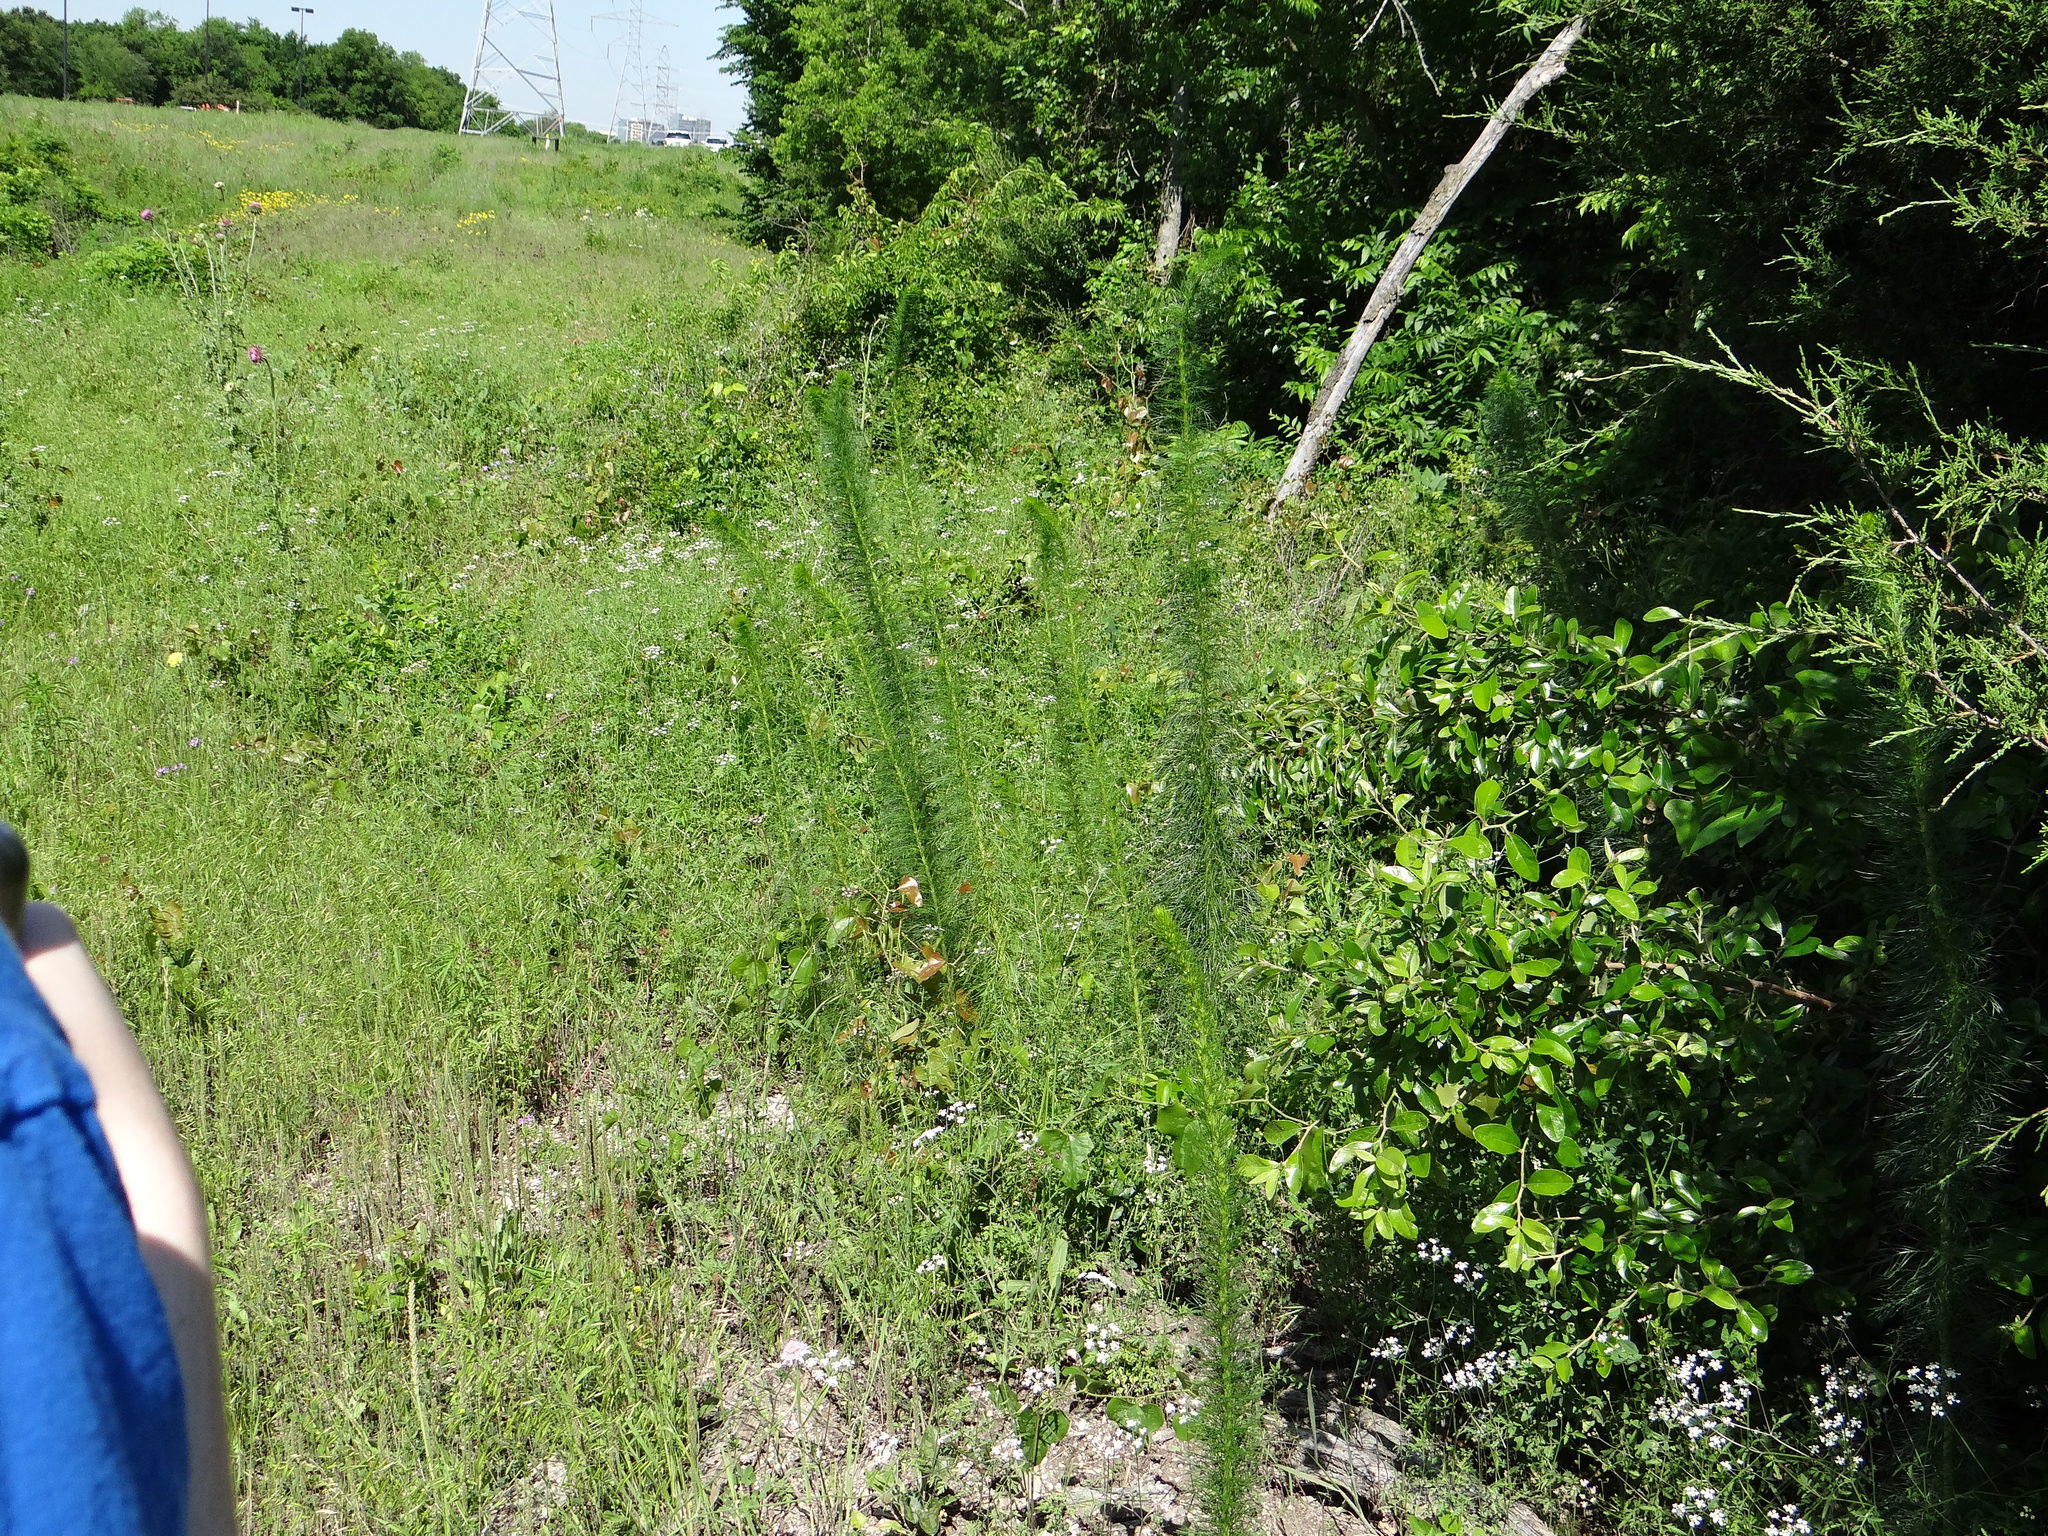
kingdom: Plantae
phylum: Tracheophyta
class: Magnoliopsida
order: Ericales
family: Polemoniaceae
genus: Ipomopsis
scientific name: Ipomopsis rubra
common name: Skyrocket
